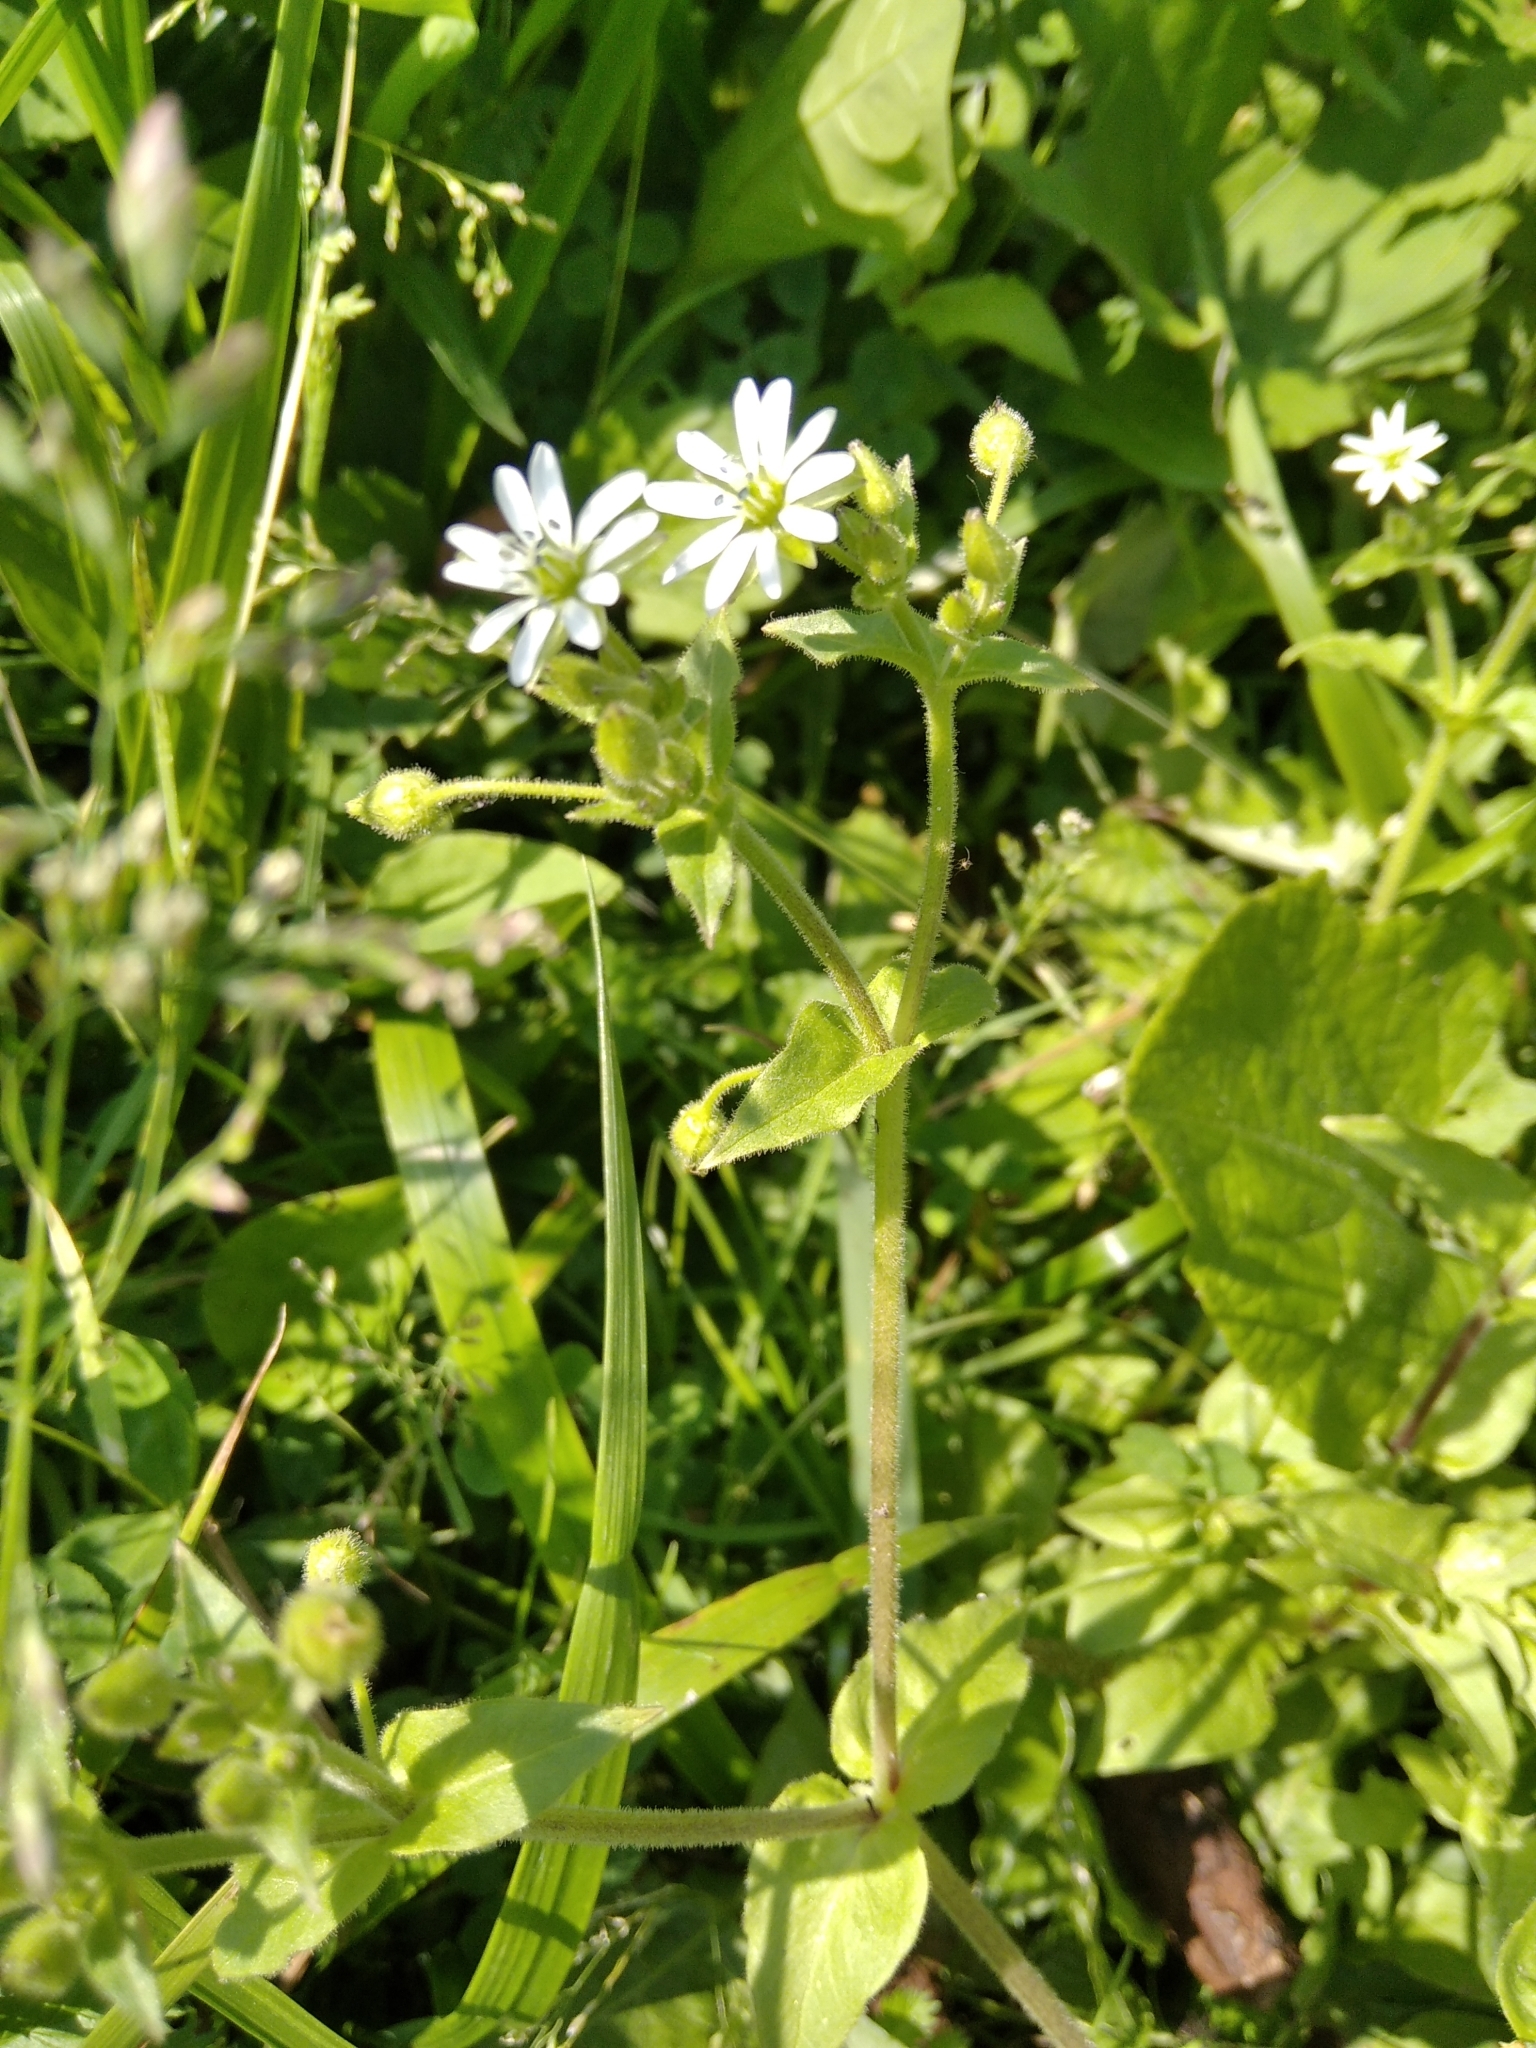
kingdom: Plantae
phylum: Tracheophyta
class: Magnoliopsida
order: Caryophyllales
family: Caryophyllaceae
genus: Stellaria
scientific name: Stellaria aquatica
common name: Water chickweed
